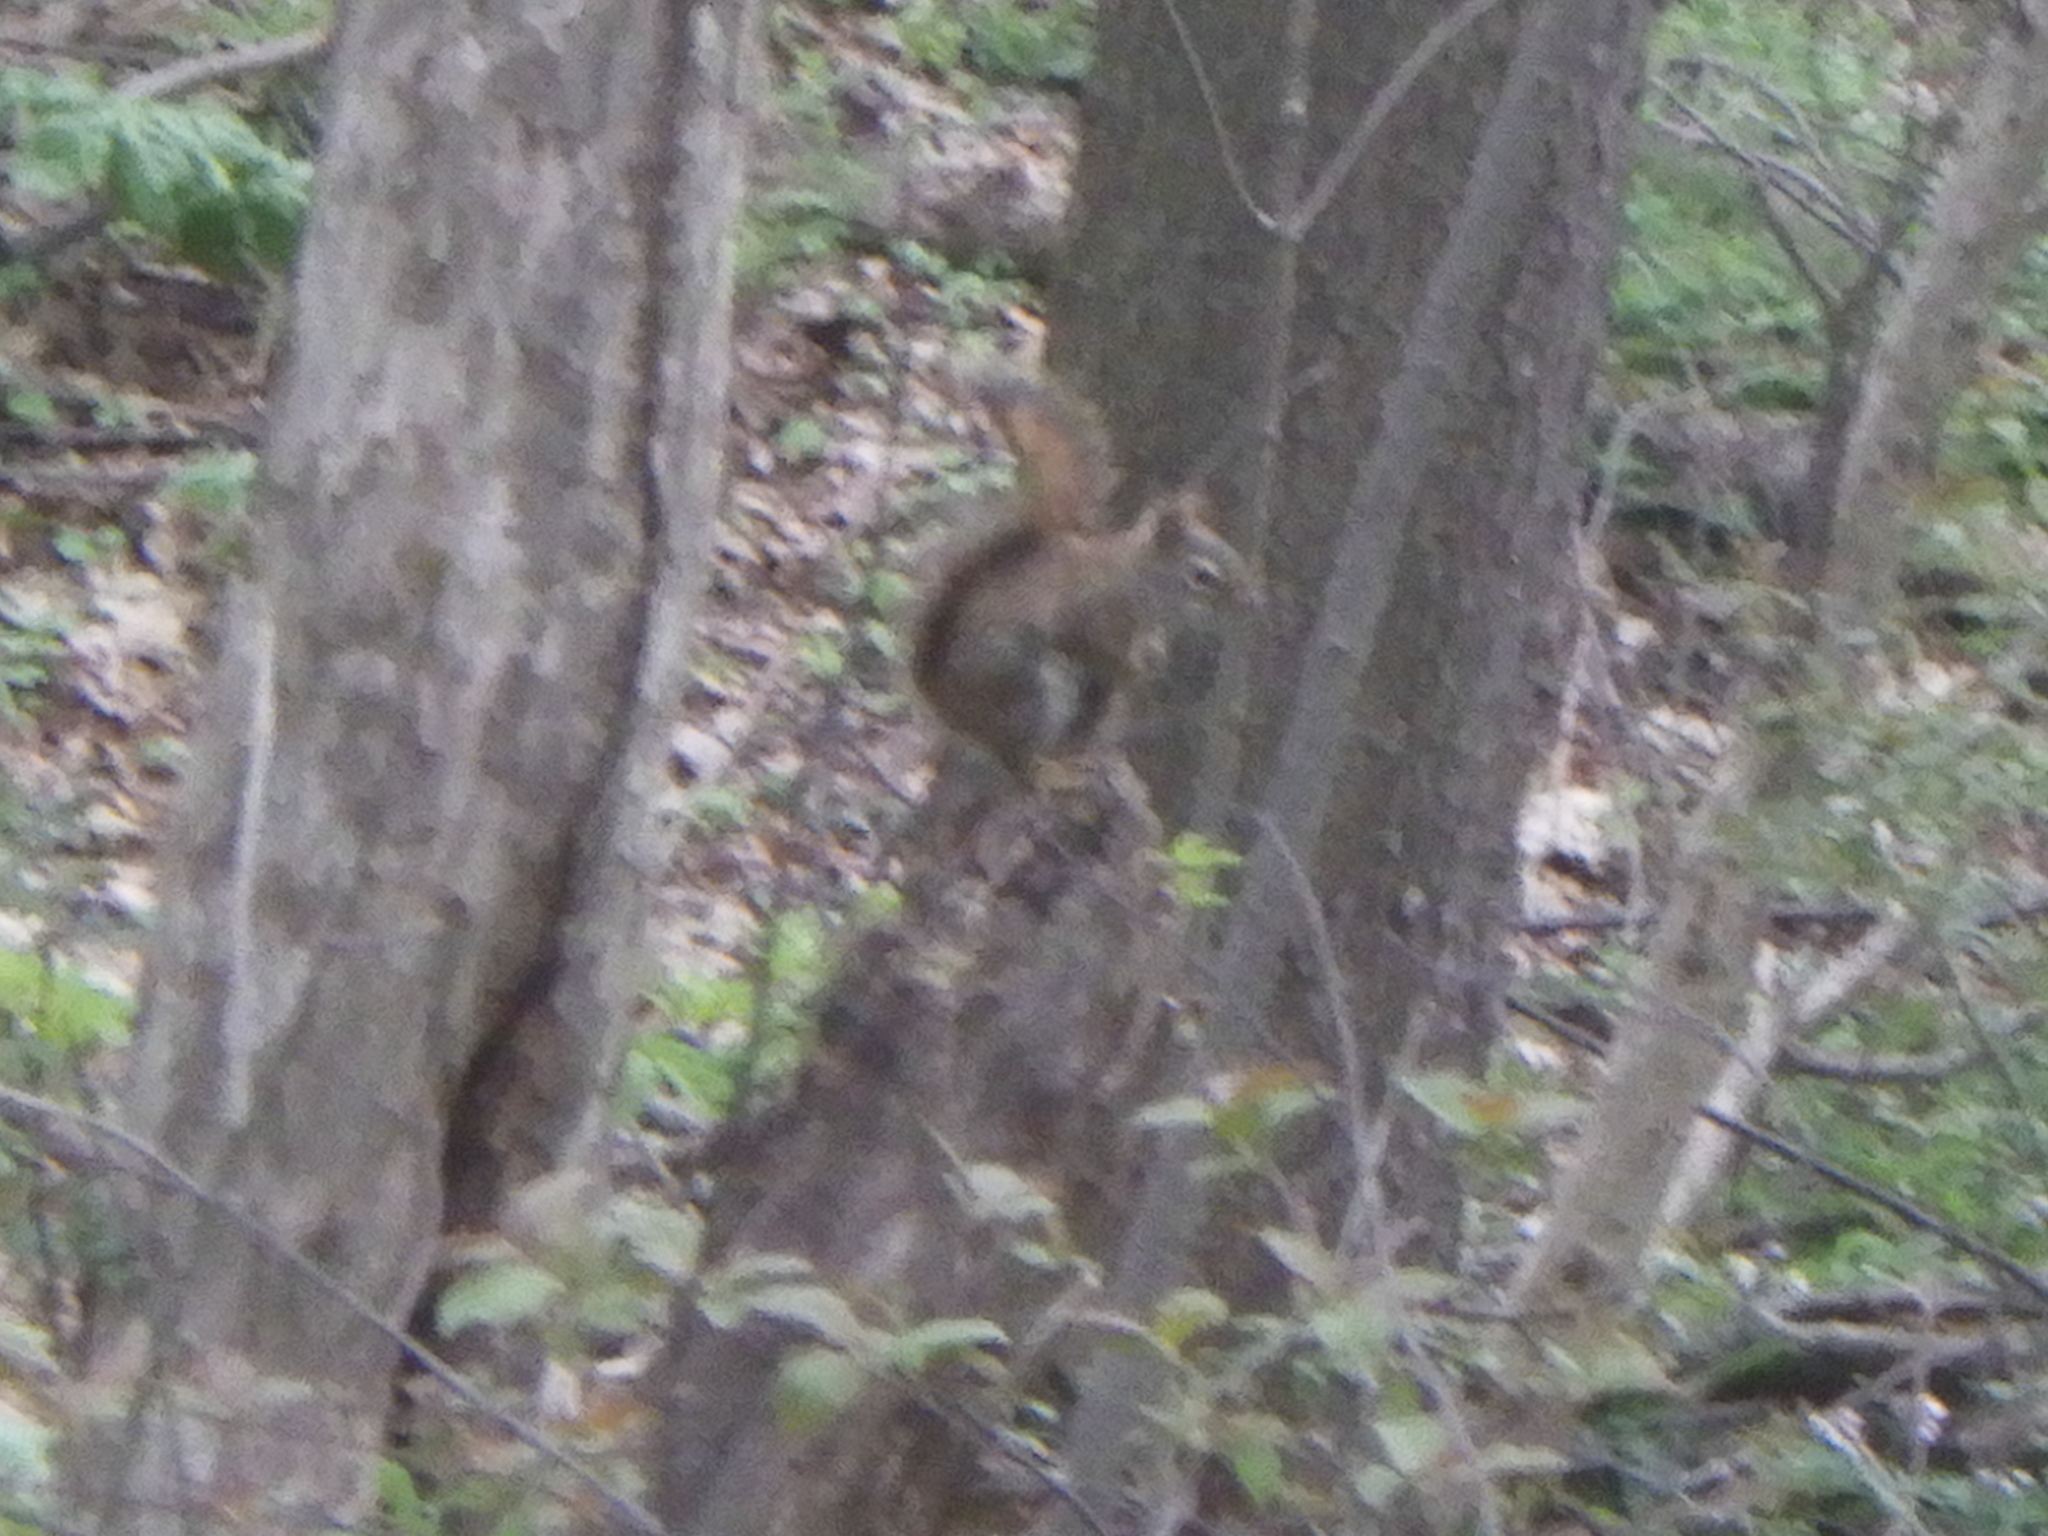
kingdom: Animalia
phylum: Chordata
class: Mammalia
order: Rodentia
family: Sciuridae
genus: Tamiasciurus
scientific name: Tamiasciurus hudsonicus
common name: Red squirrel
